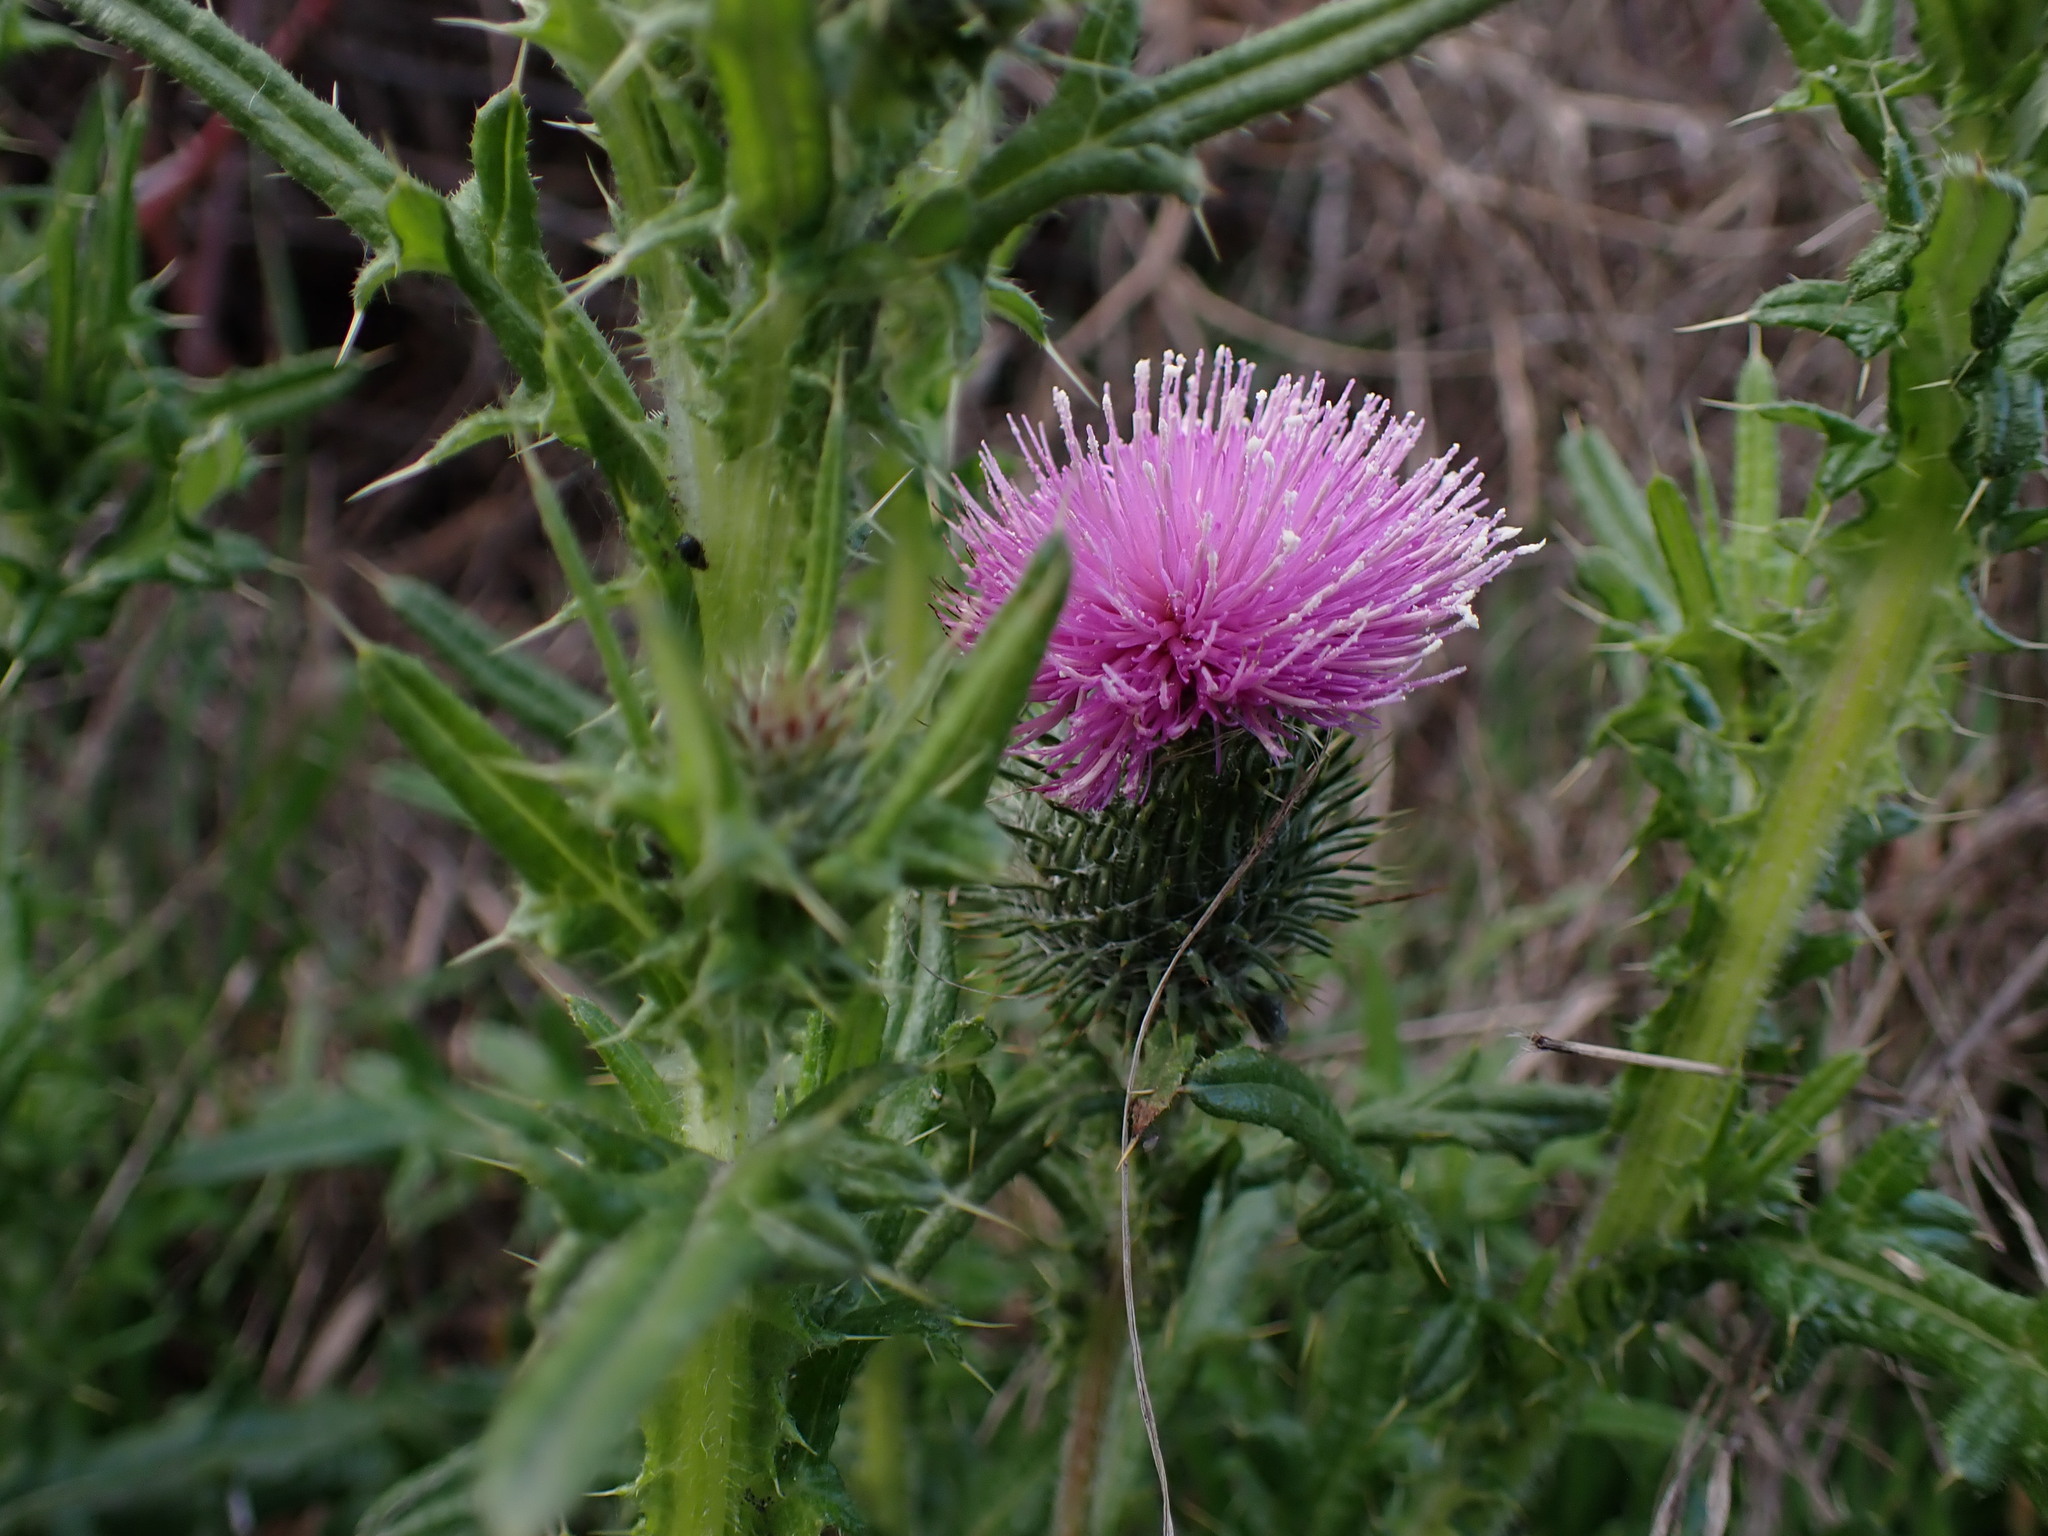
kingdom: Plantae
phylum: Tracheophyta
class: Magnoliopsida
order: Asterales
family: Asteraceae
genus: Cirsium
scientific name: Cirsium vulgare
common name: Bull thistle
